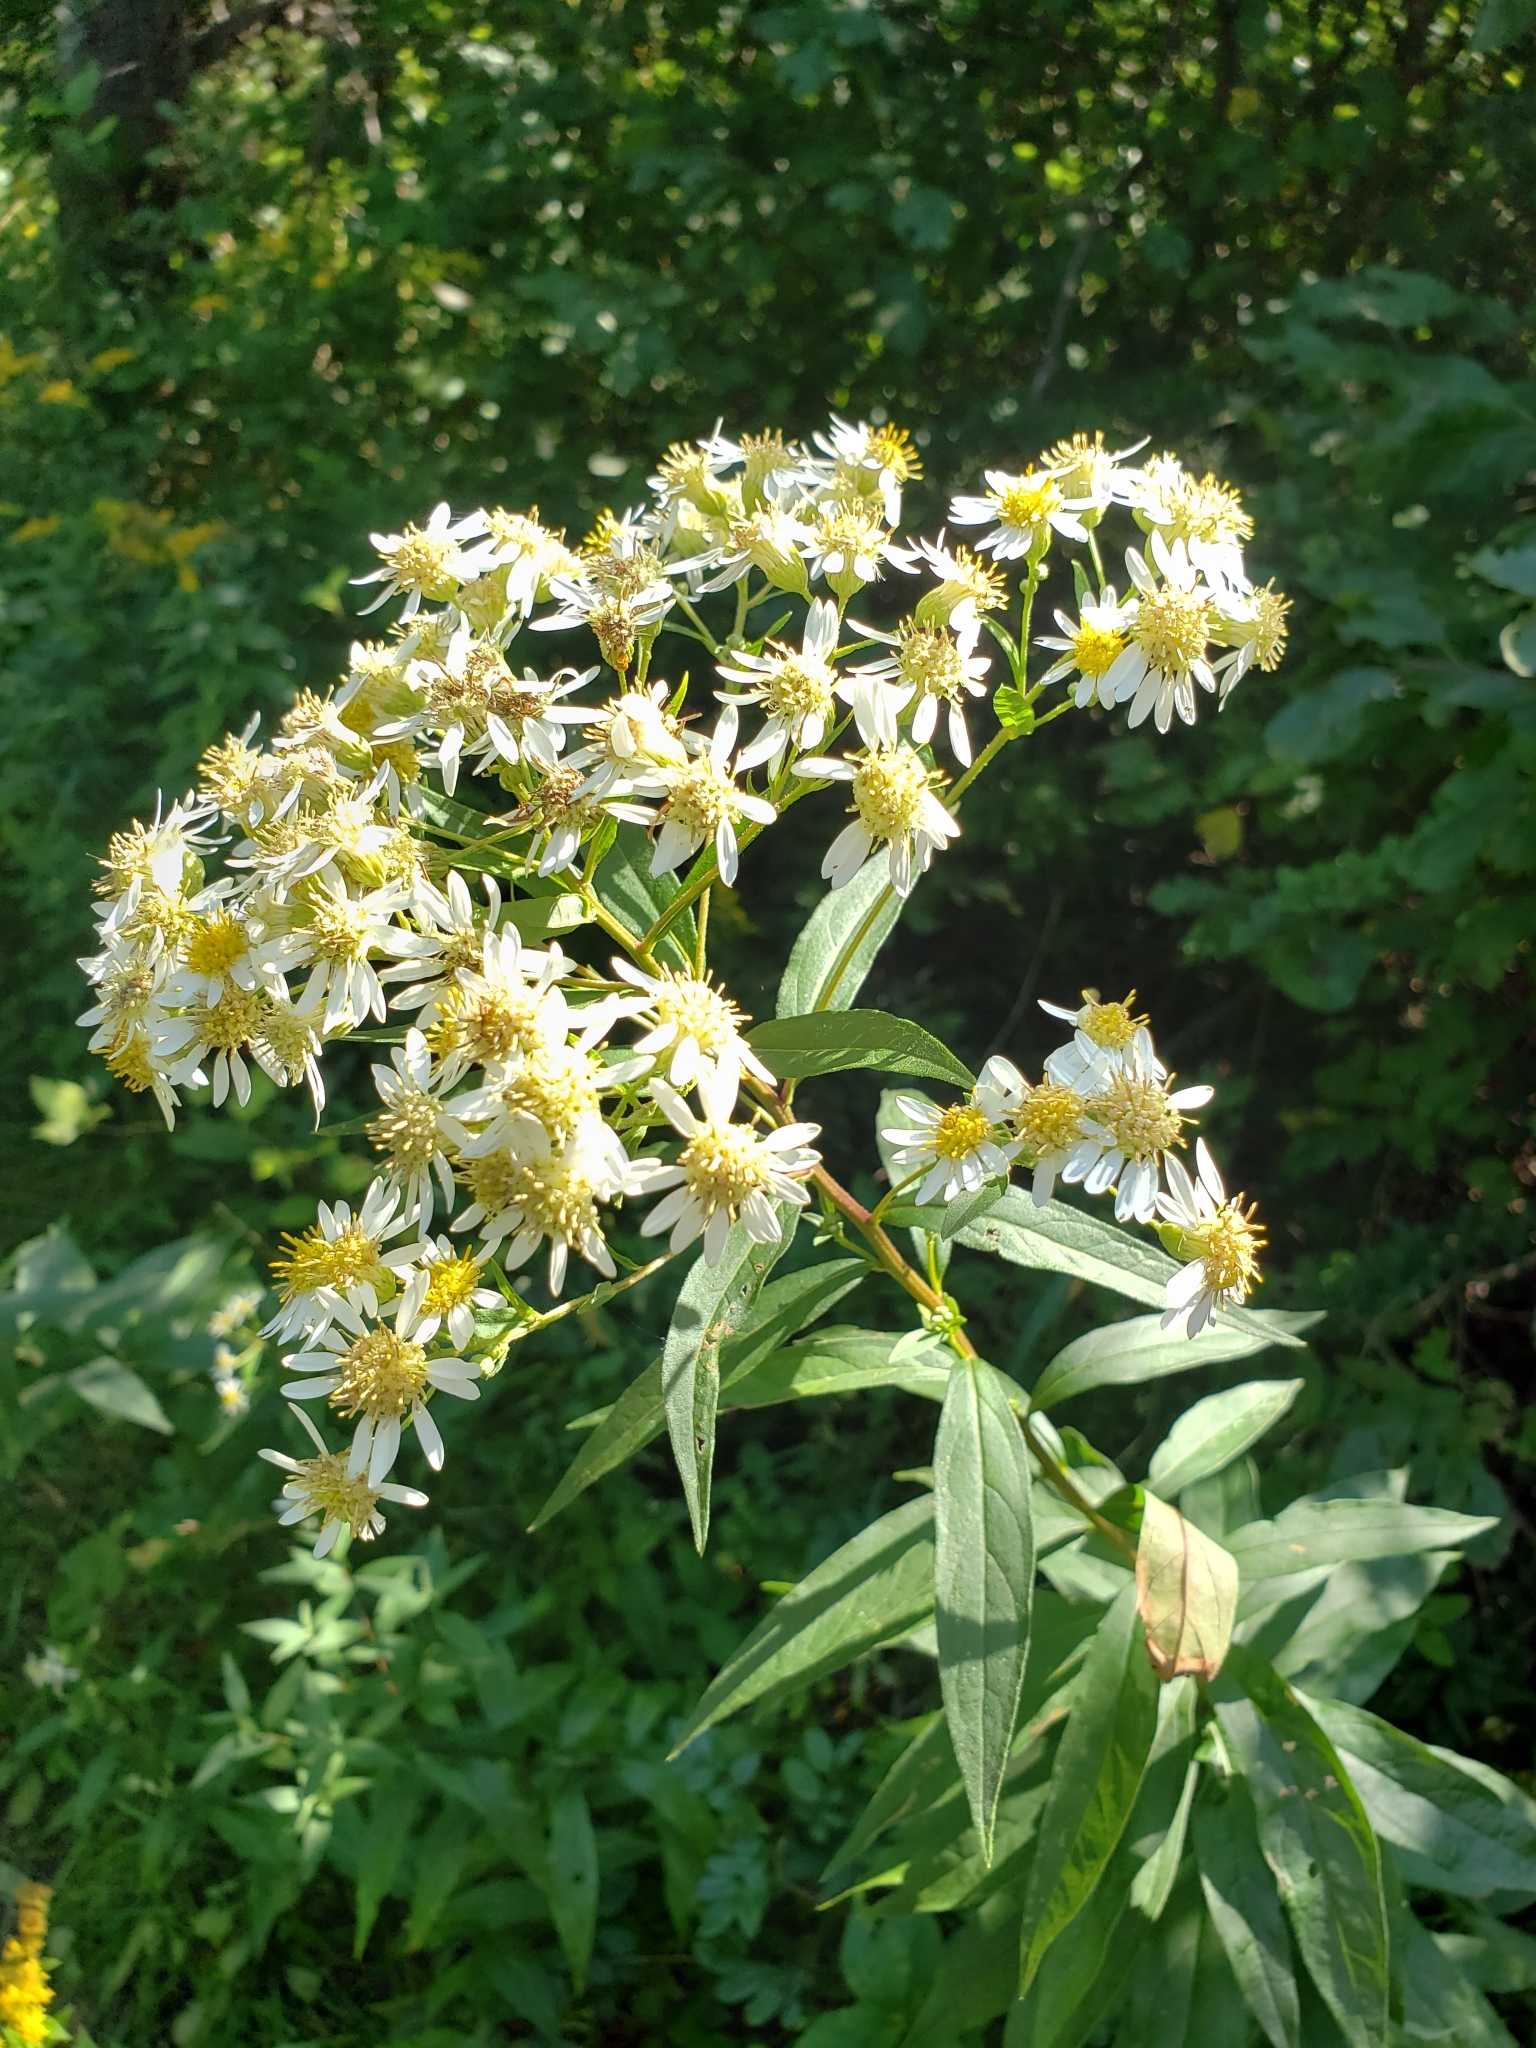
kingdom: Plantae
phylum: Tracheophyta
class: Magnoliopsida
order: Asterales
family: Asteraceae
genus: Doellingeria
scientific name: Doellingeria umbellata
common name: Flat-top white aster
